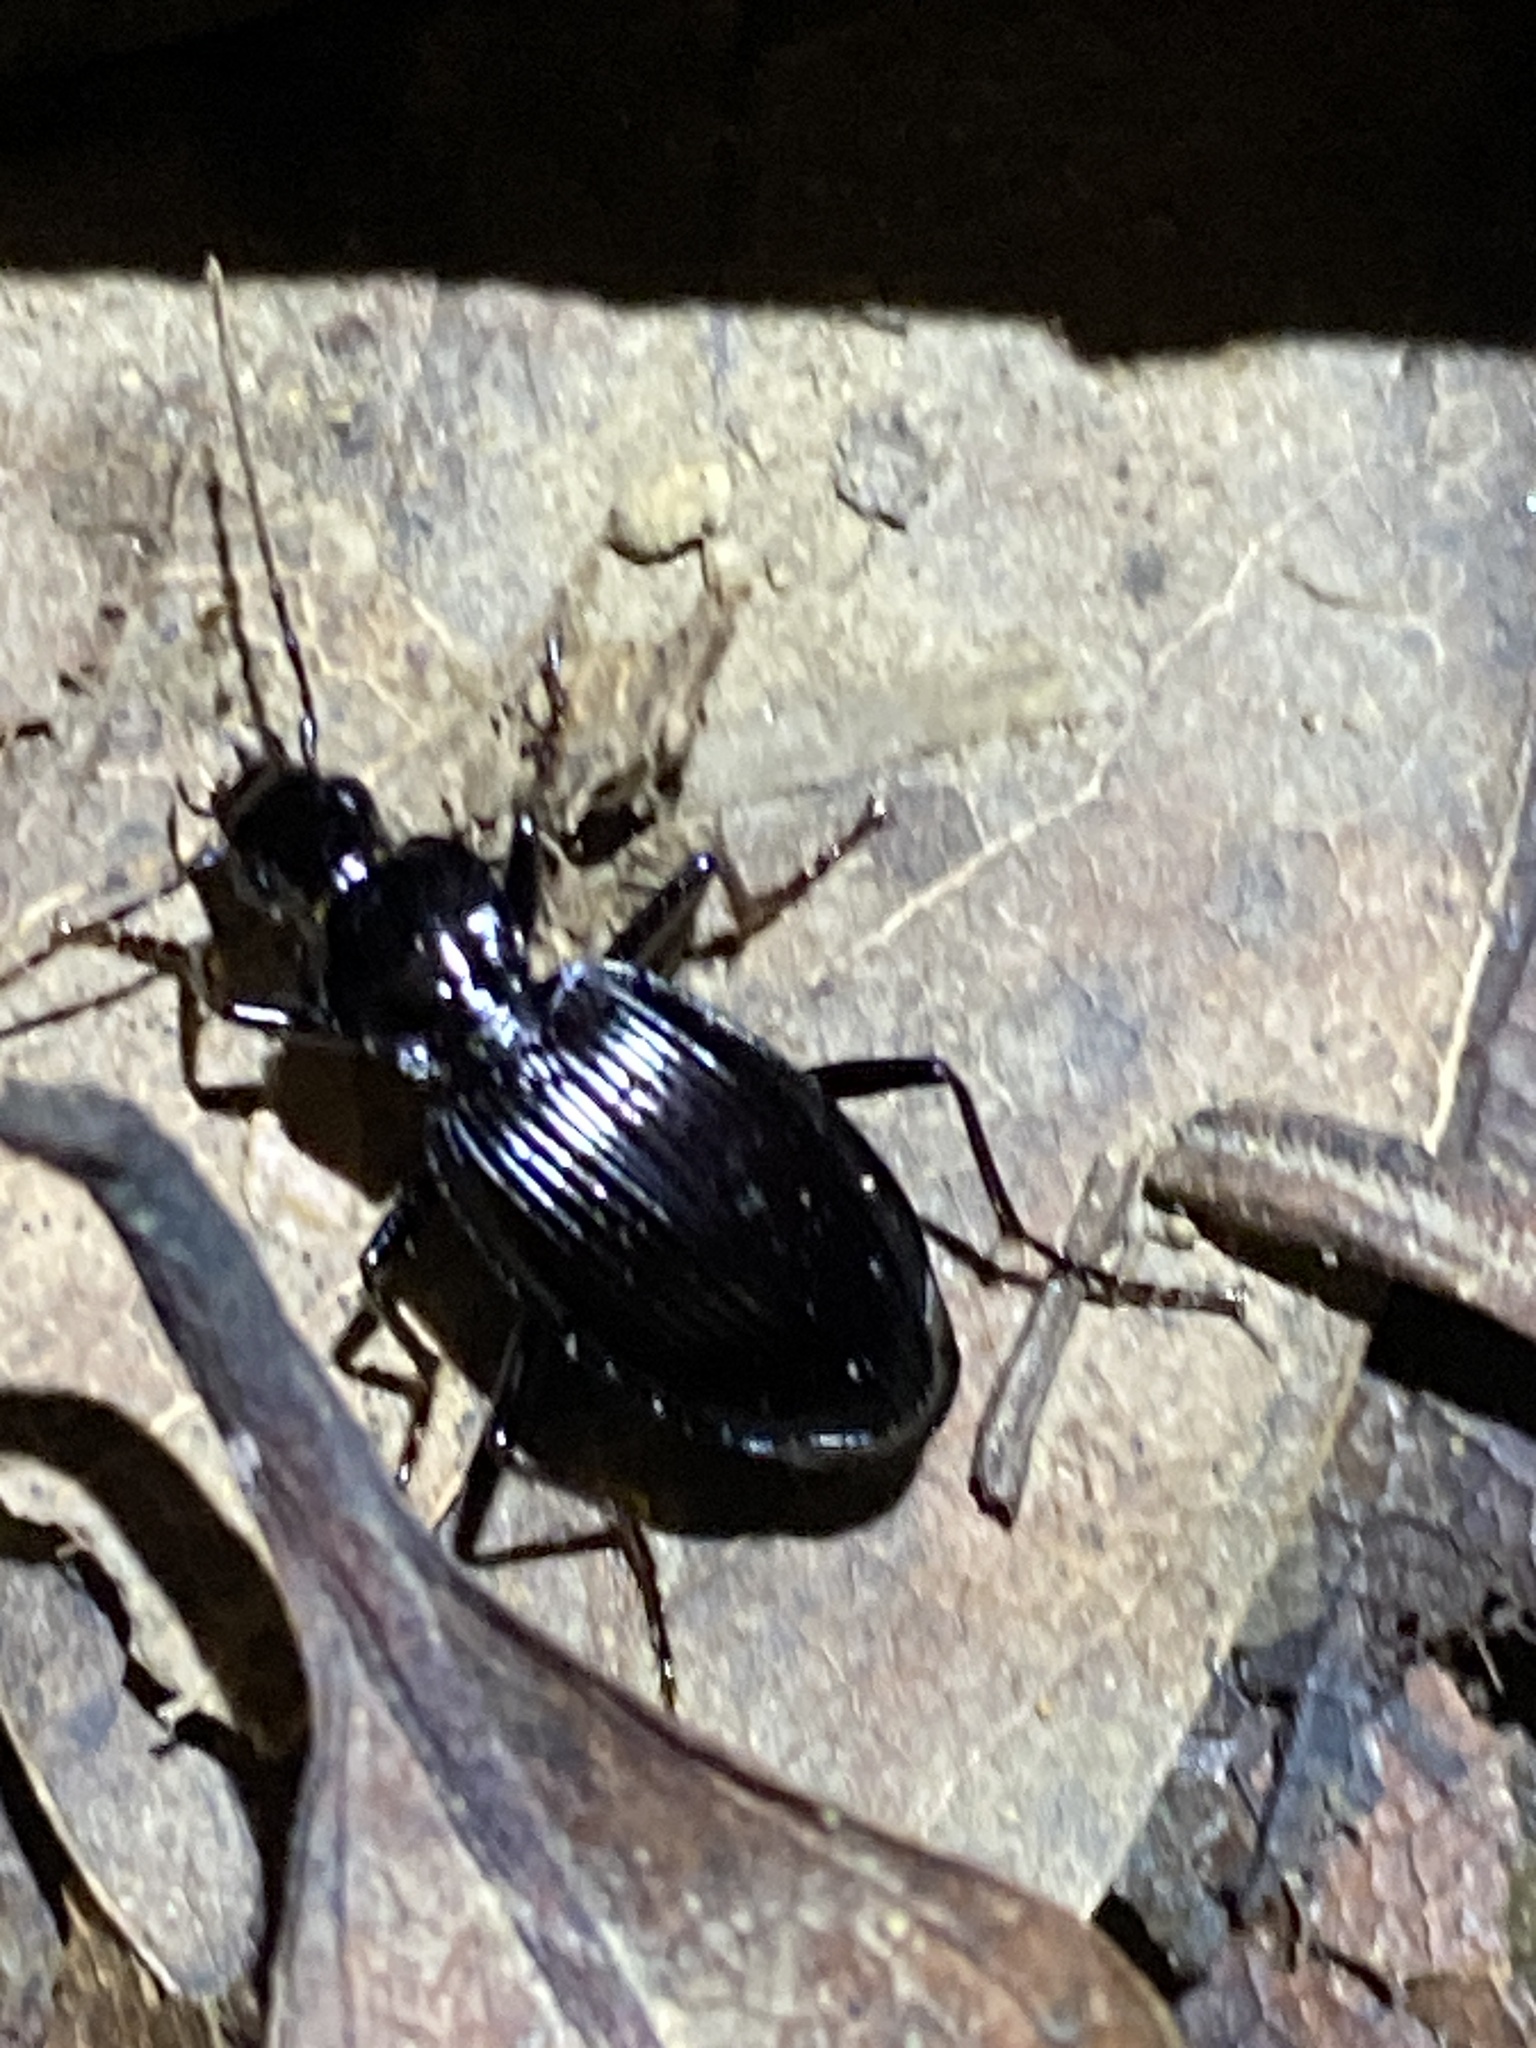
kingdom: Animalia
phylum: Arthropoda
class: Insecta
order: Coleoptera
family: Carabidae
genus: Platynus
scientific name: Platynus ovipennis
